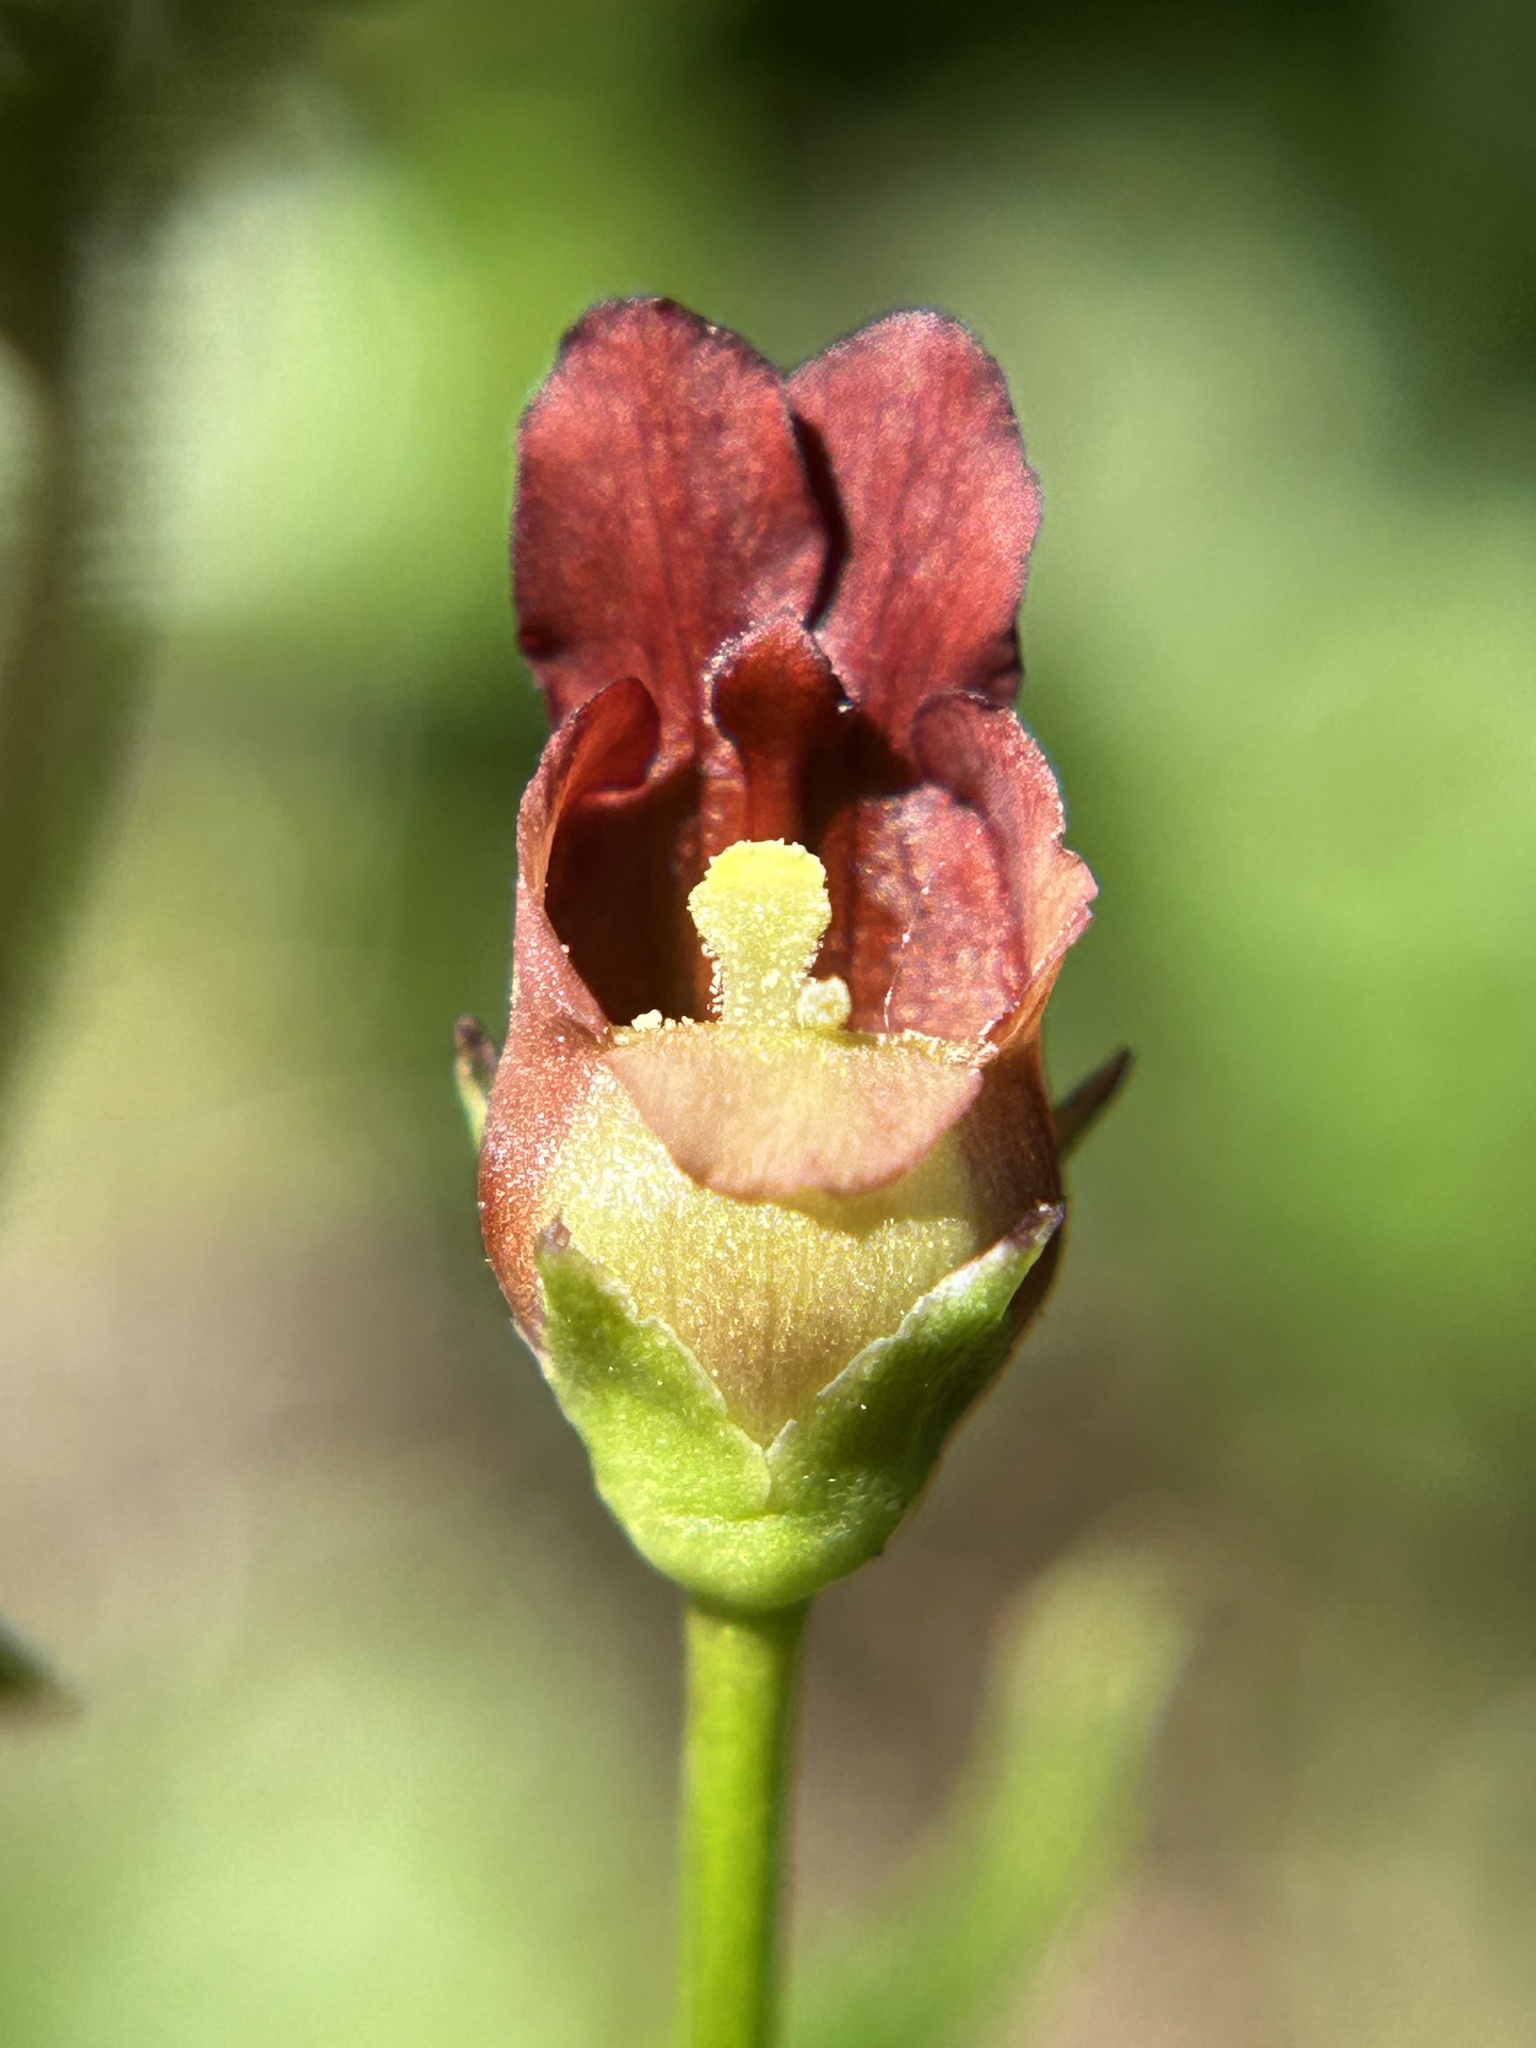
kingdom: Plantae
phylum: Tracheophyta
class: Magnoliopsida
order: Lamiales
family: Scrophulariaceae
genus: Scrophularia
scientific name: Scrophularia californica
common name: California figwort
